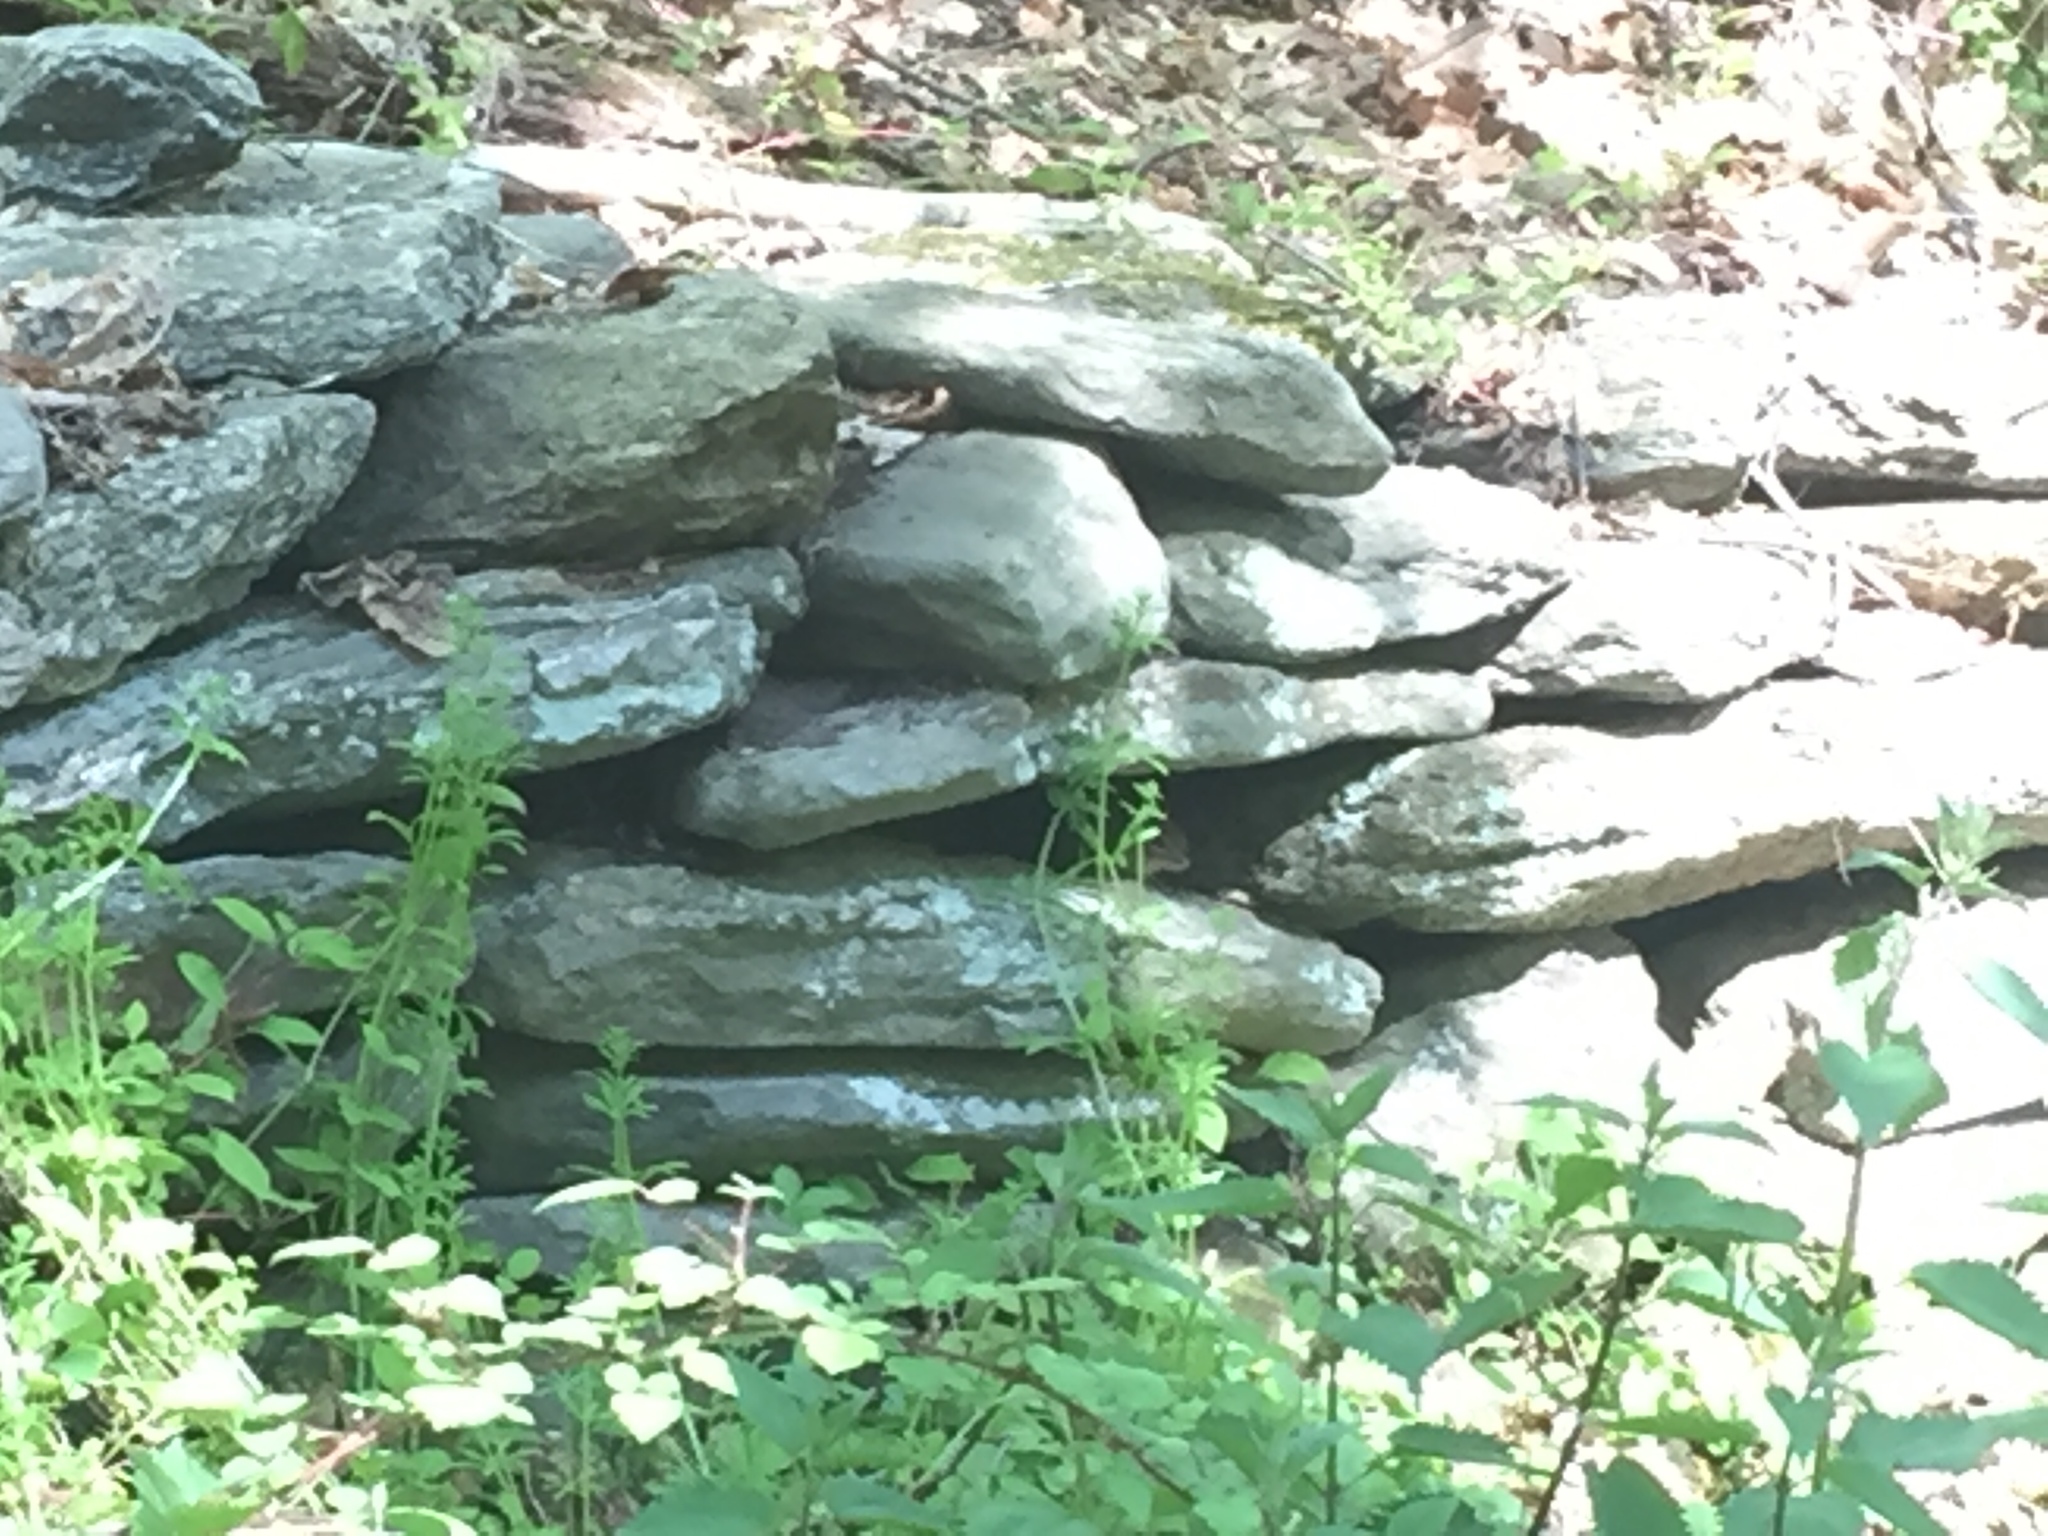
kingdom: Animalia
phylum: Chordata
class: Mammalia
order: Rodentia
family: Sciuridae
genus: Tamias
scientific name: Tamias striatus
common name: Eastern chipmunk
